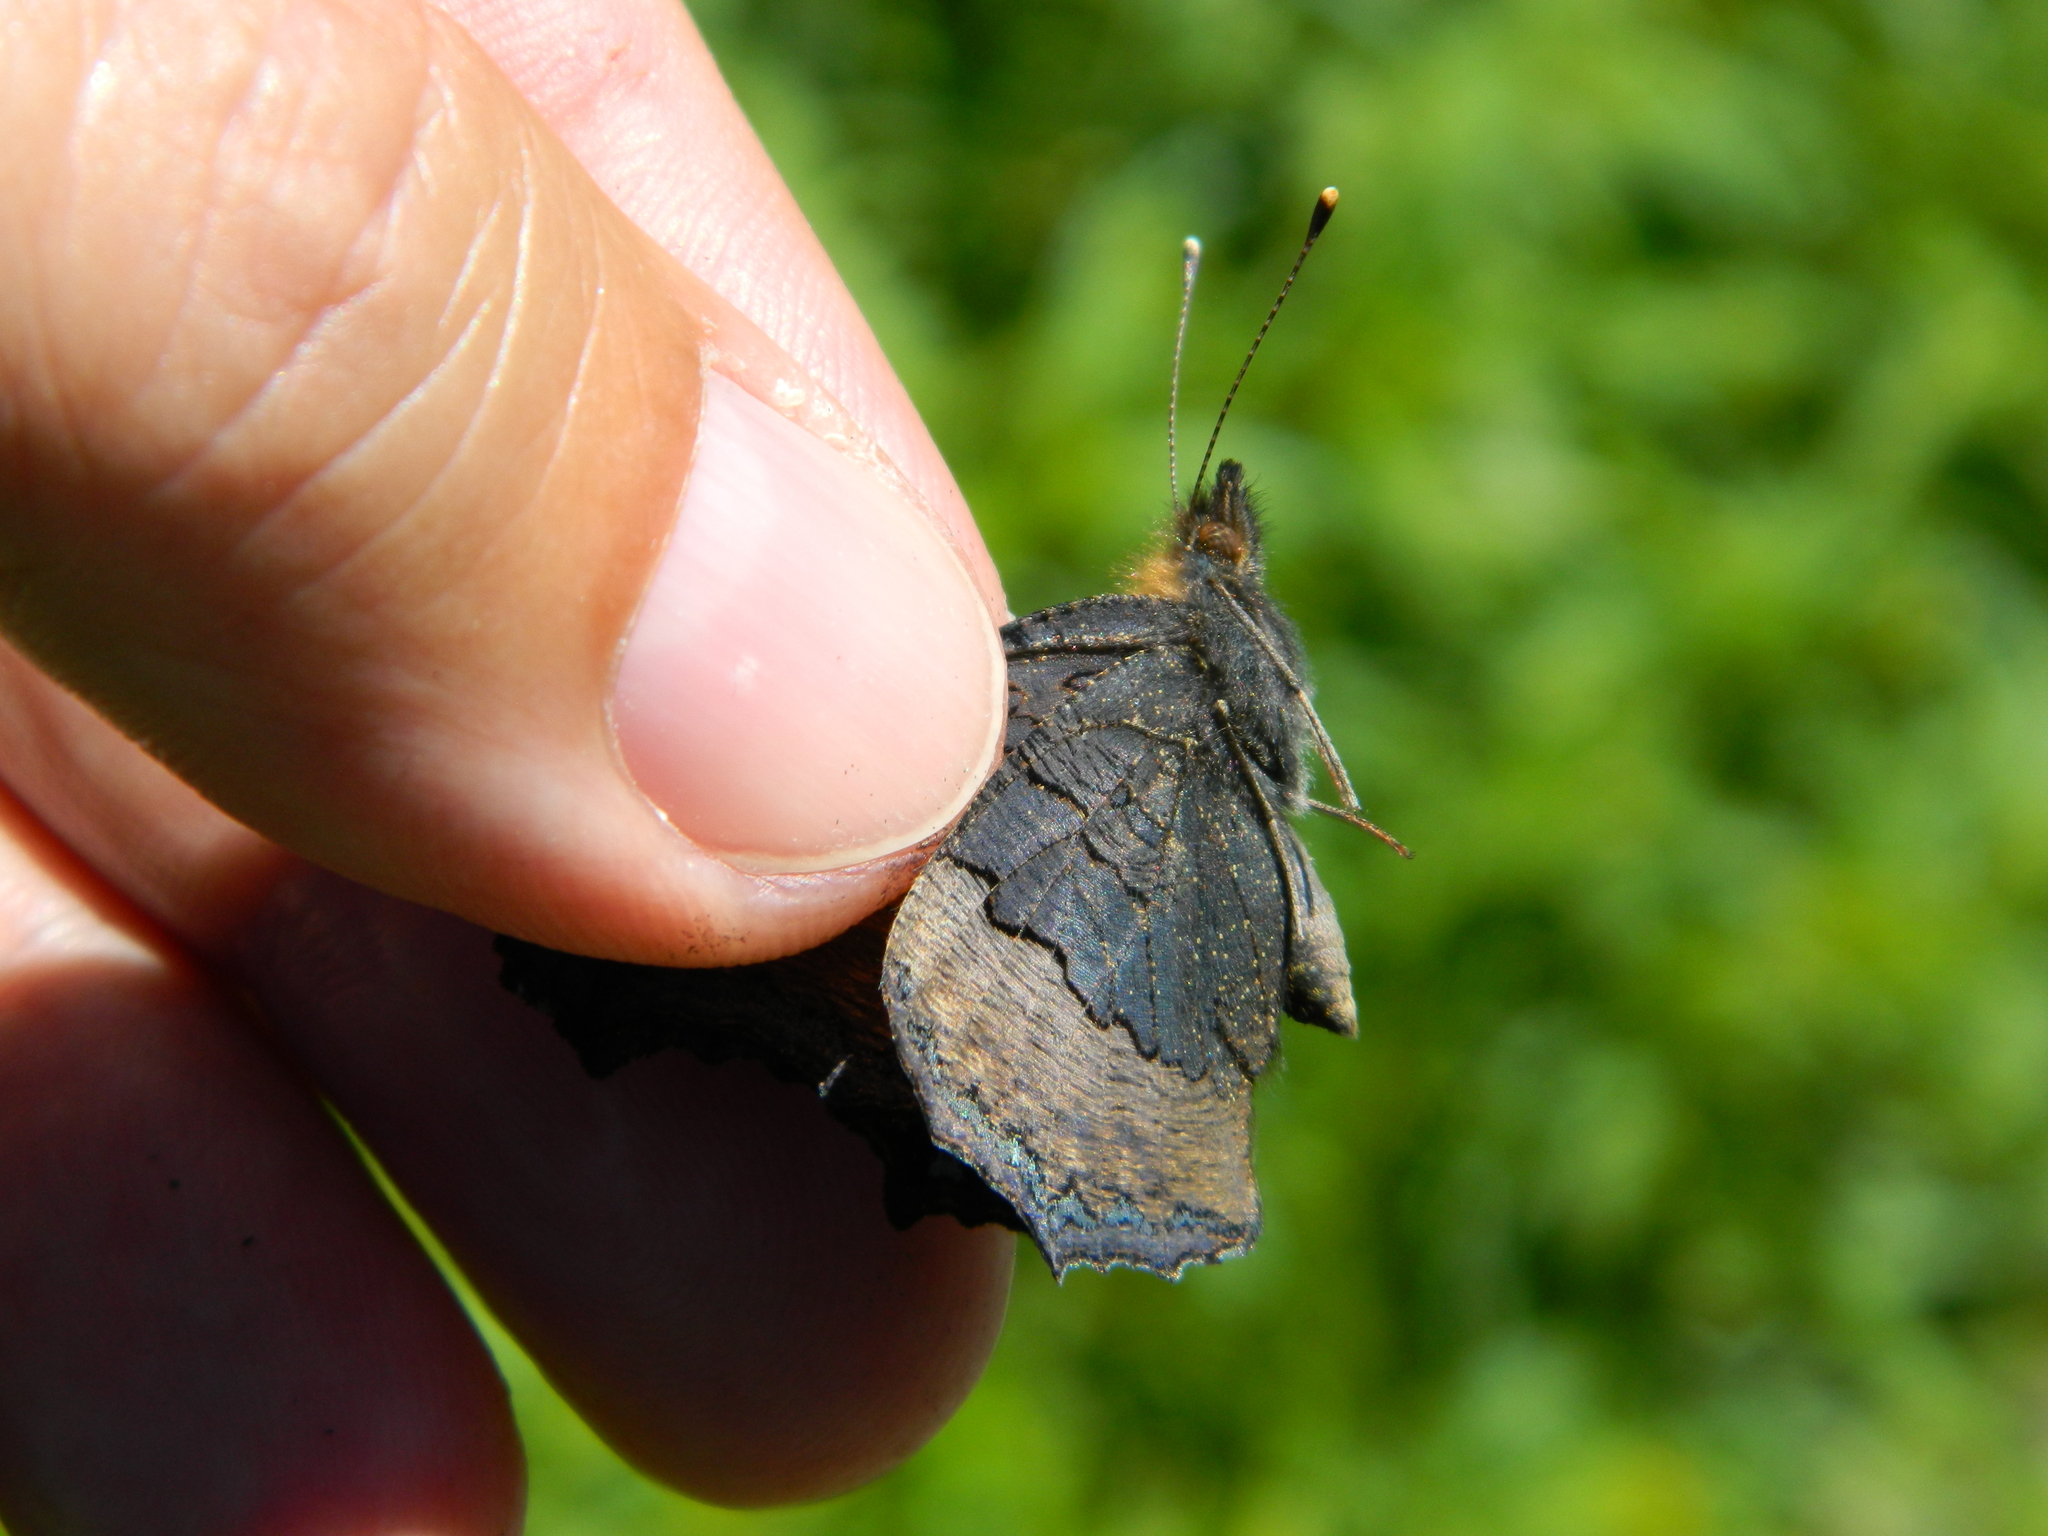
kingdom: Animalia
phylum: Arthropoda
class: Insecta
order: Lepidoptera
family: Nymphalidae
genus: Aglais
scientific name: Aglais milberti
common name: Milbert's tortoiseshell
